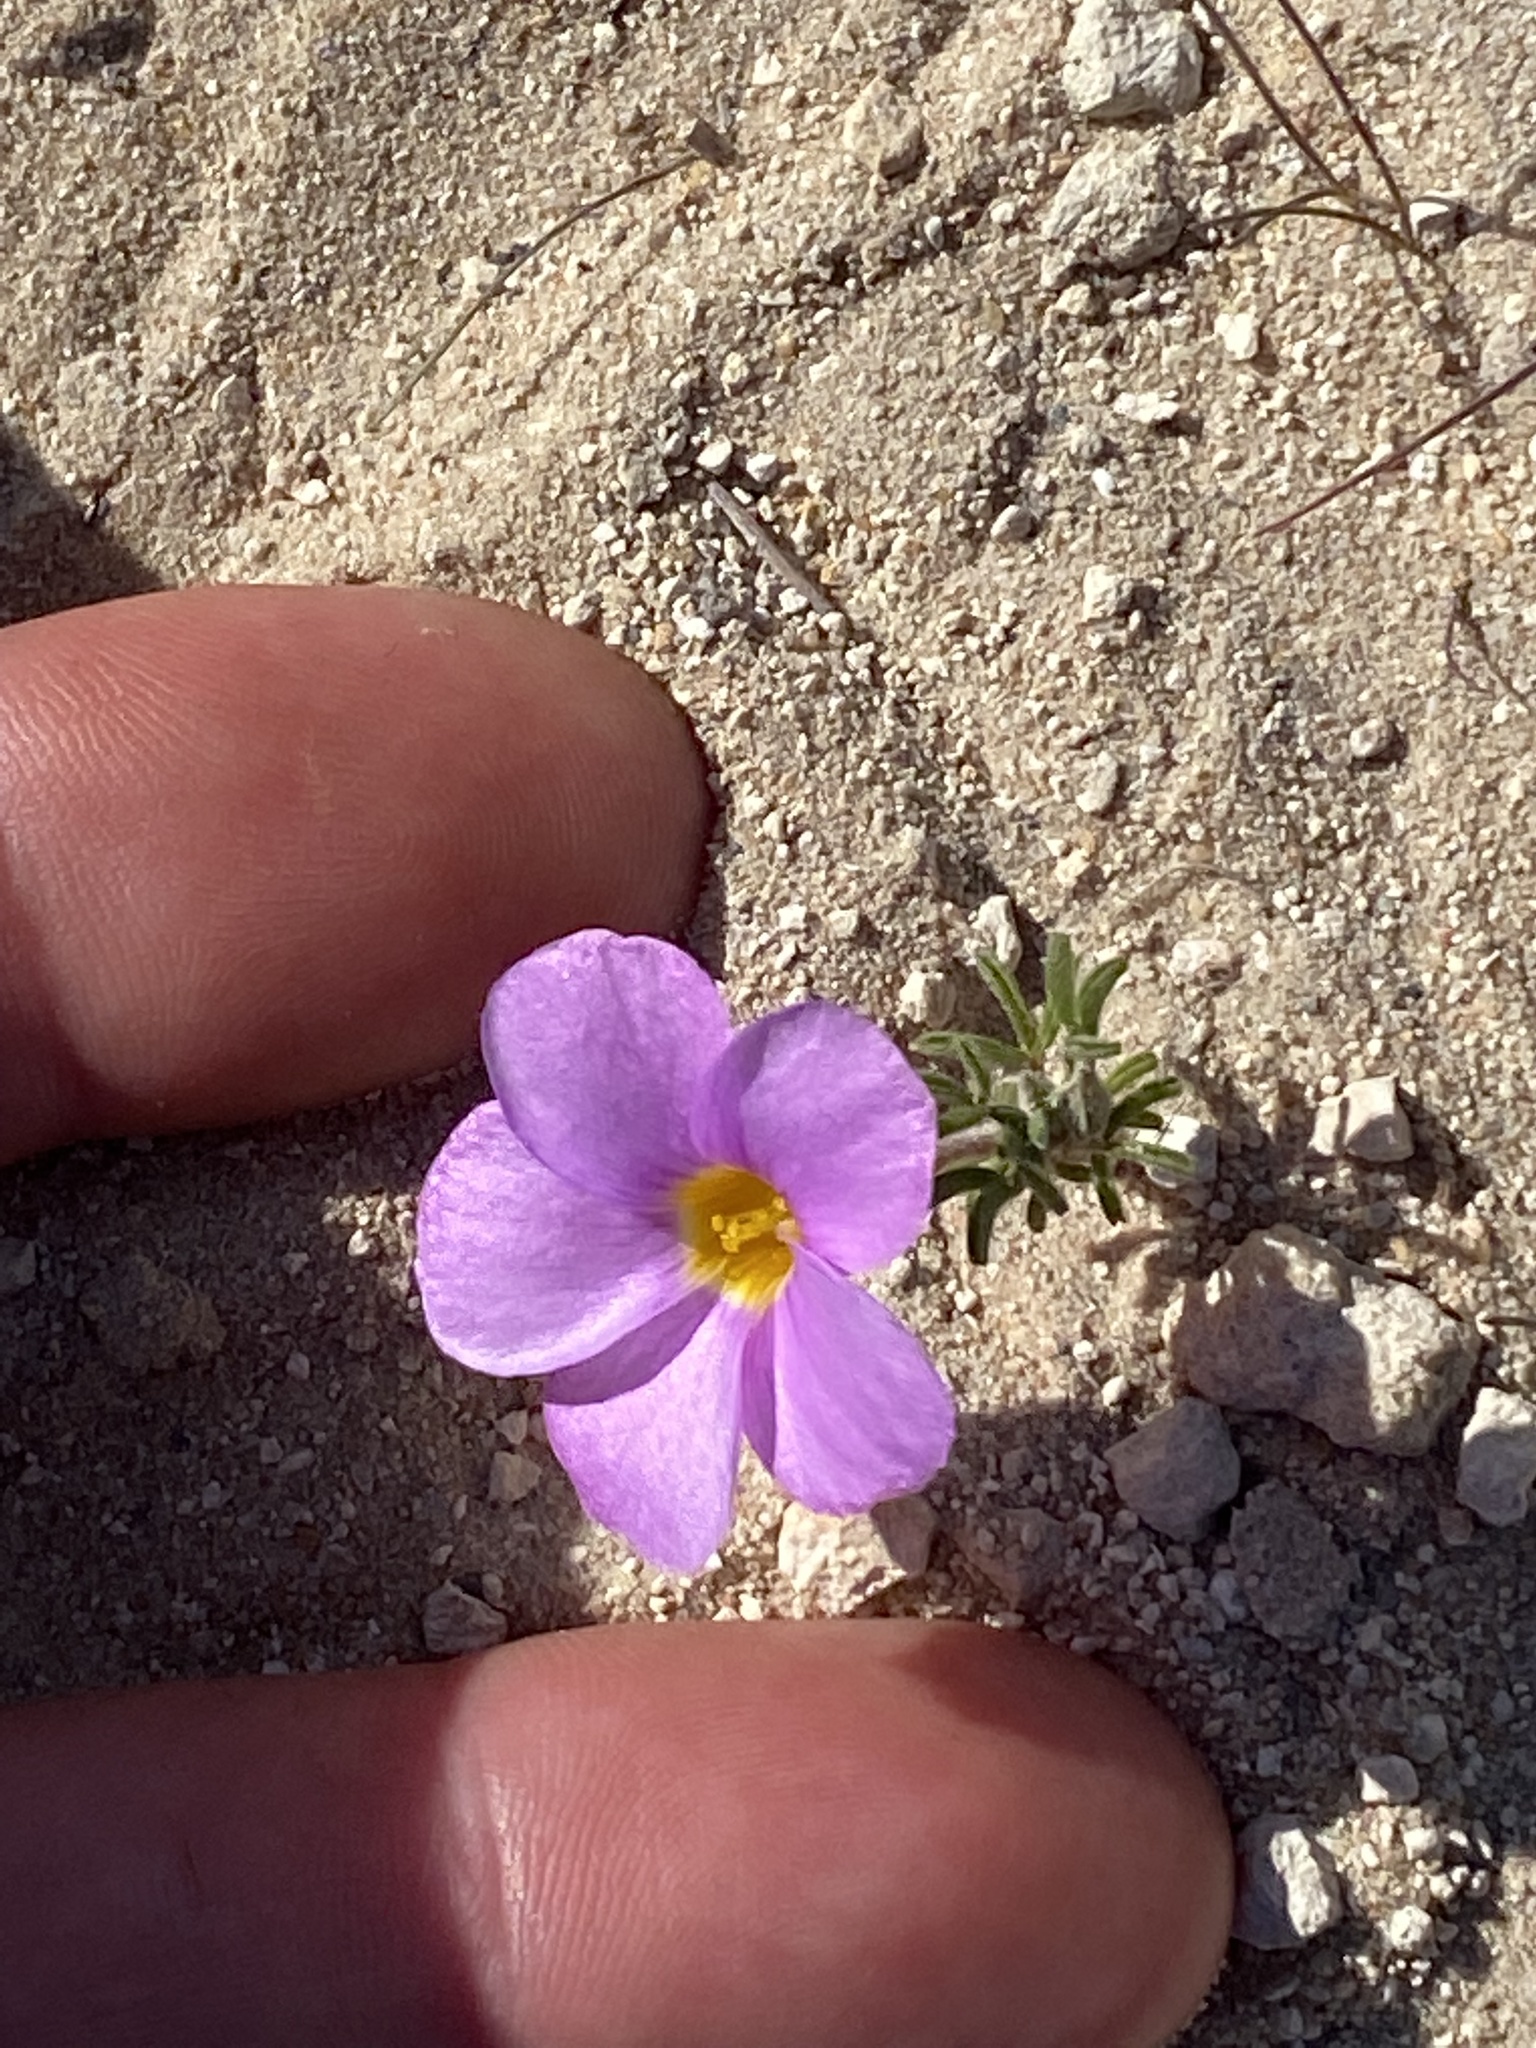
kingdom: Plantae
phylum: Tracheophyta
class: Magnoliopsida
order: Oxalidales
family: Oxalidaceae
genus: Oxalis
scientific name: Oxalis ciliaris
